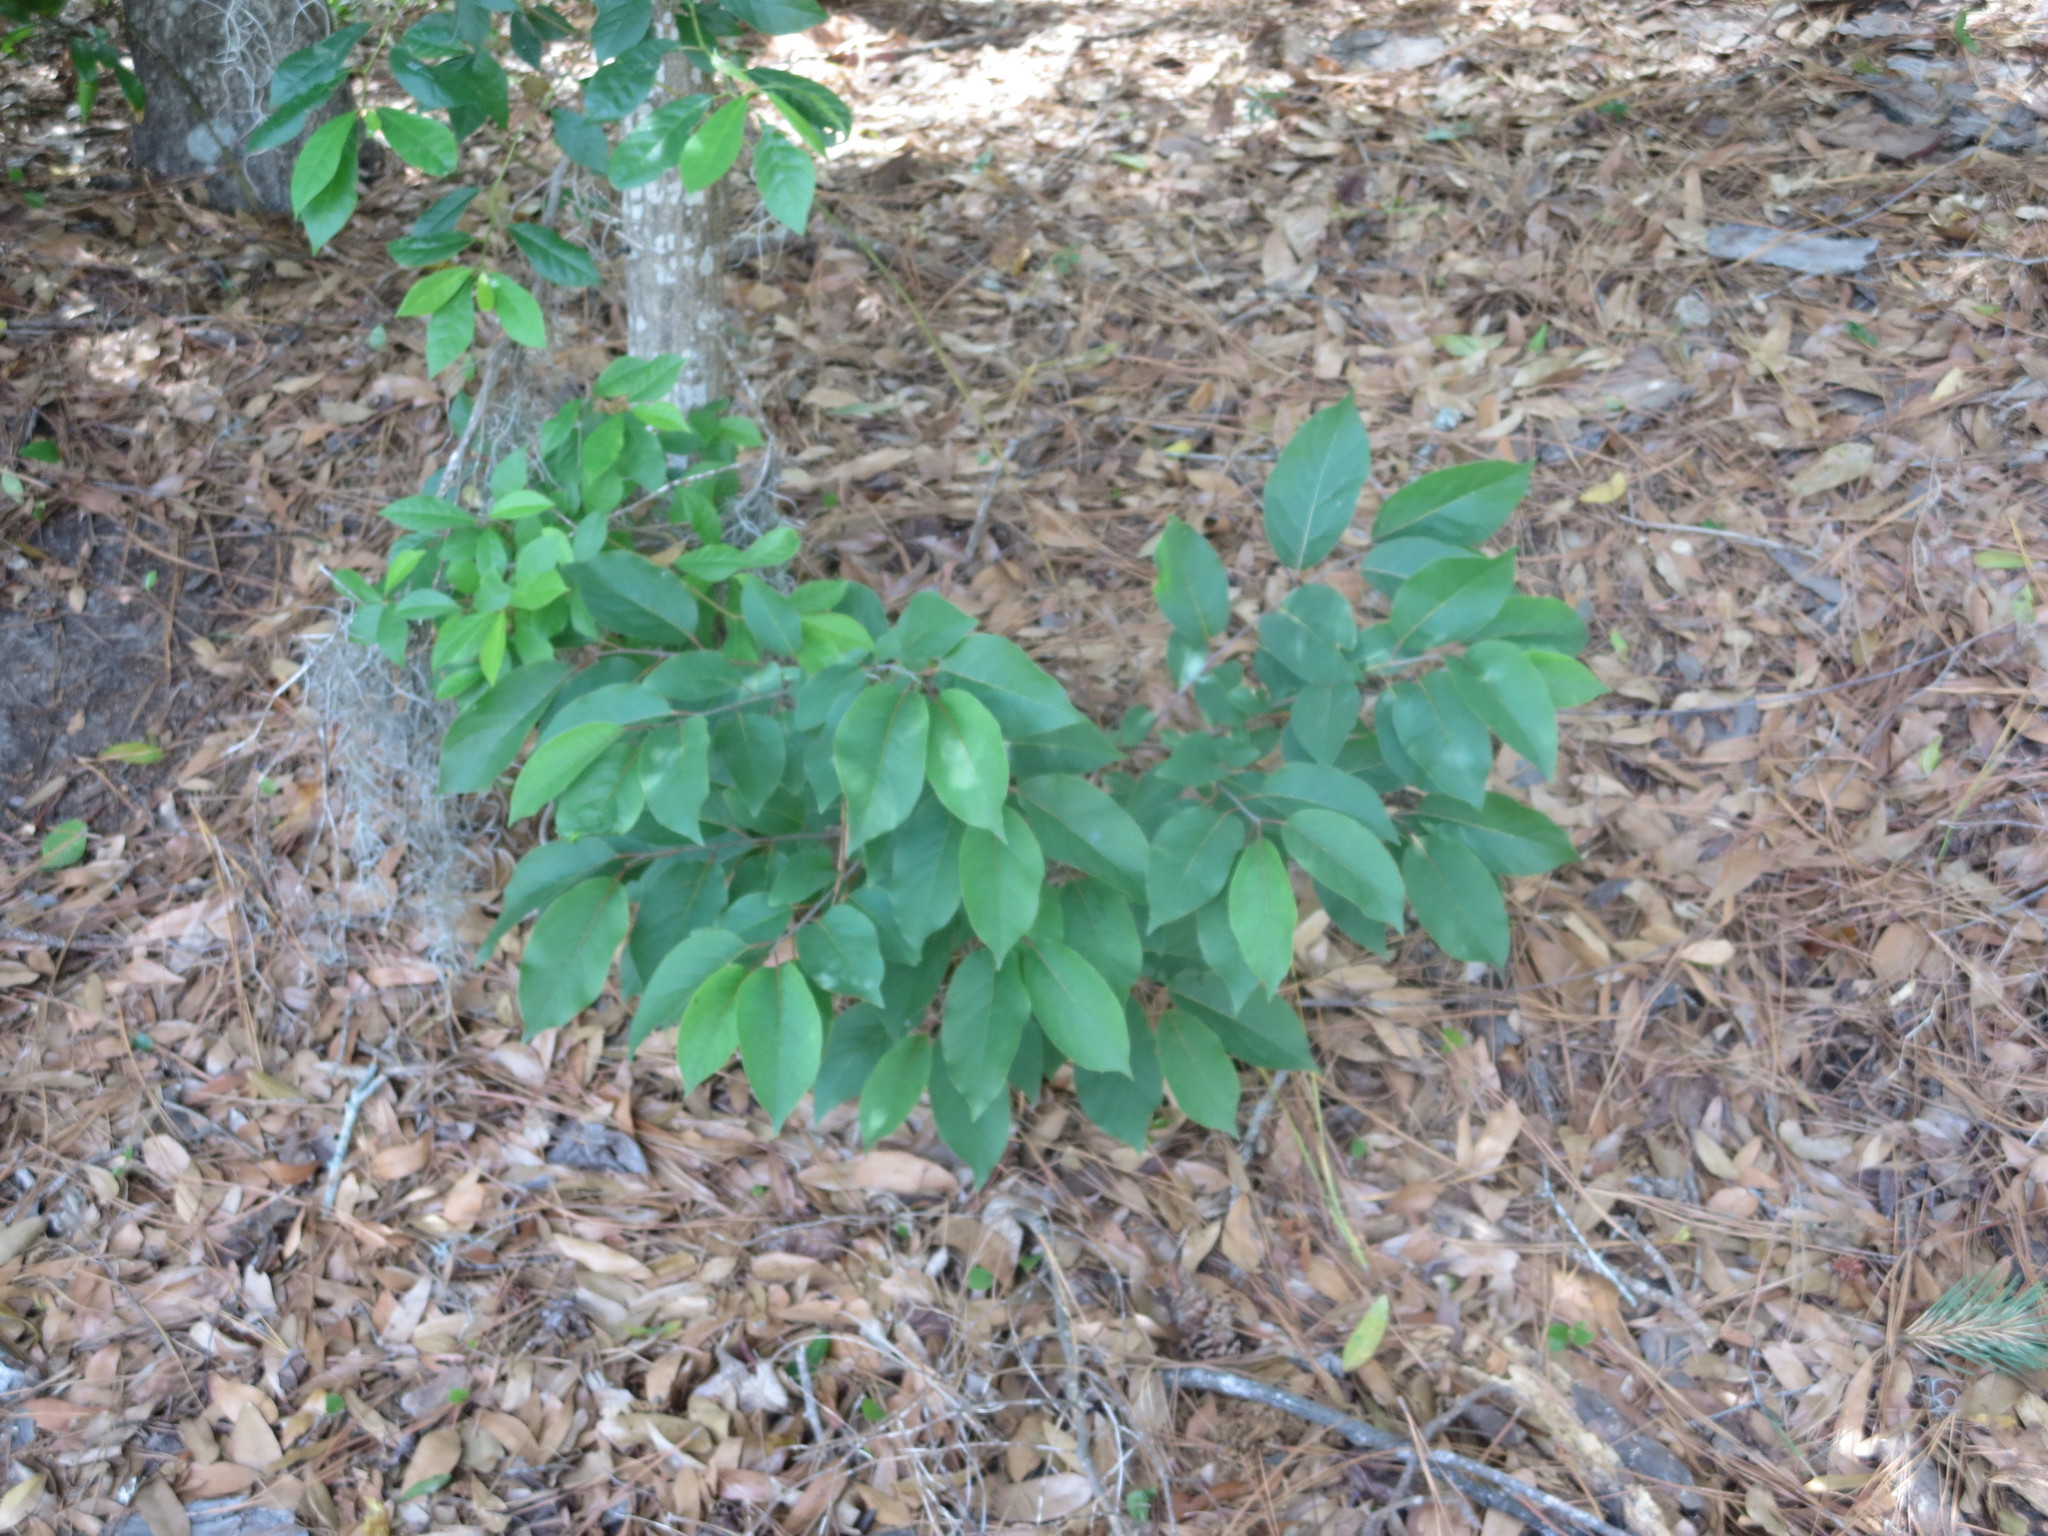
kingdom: Plantae
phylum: Tracheophyta
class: Magnoliopsida
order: Ericales
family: Ebenaceae
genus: Diospyros
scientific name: Diospyros virginiana
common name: Persimmon
